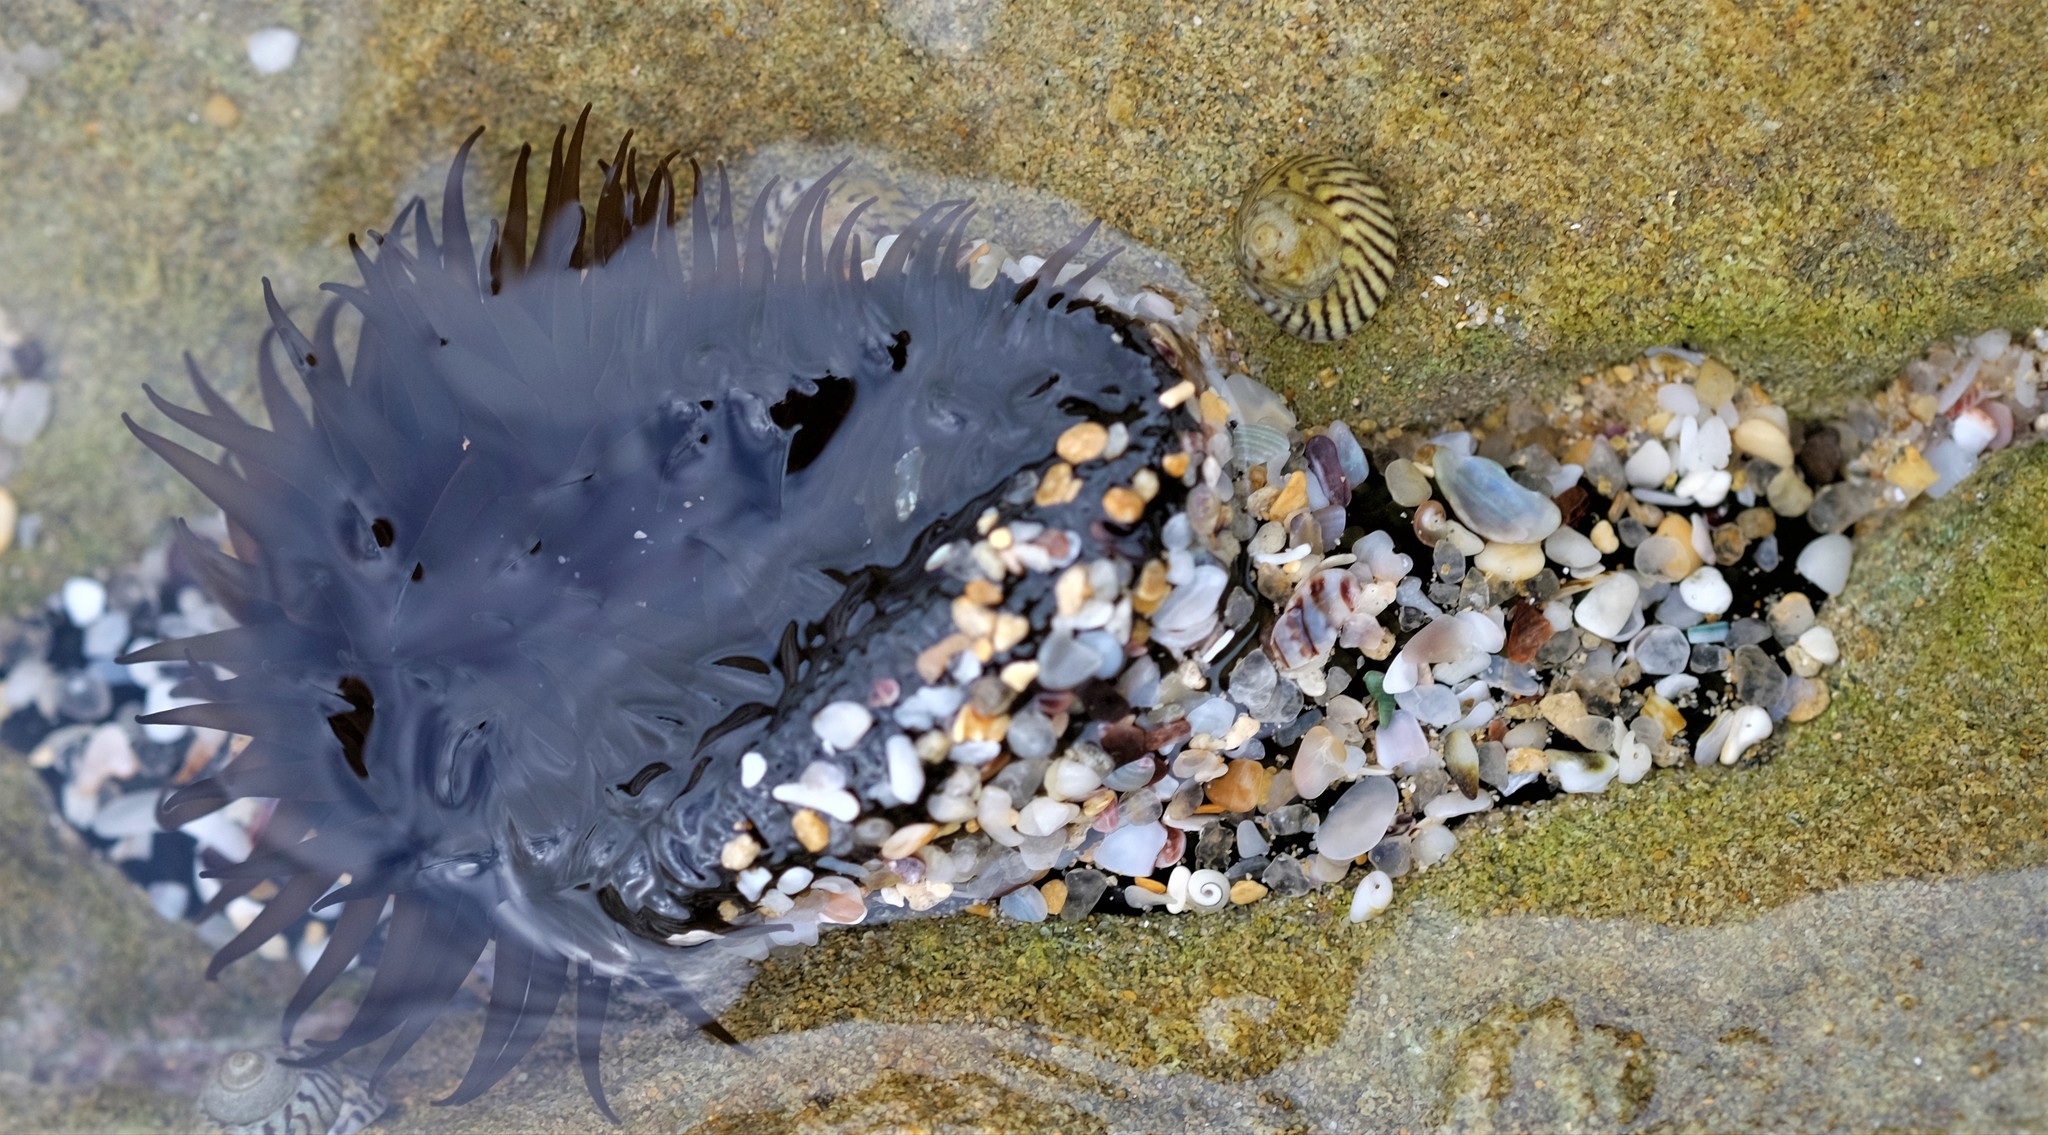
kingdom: Animalia
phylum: Cnidaria
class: Anthozoa
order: Actiniaria
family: Actiniidae
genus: Aulactinia
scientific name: Aulactinia veratra
